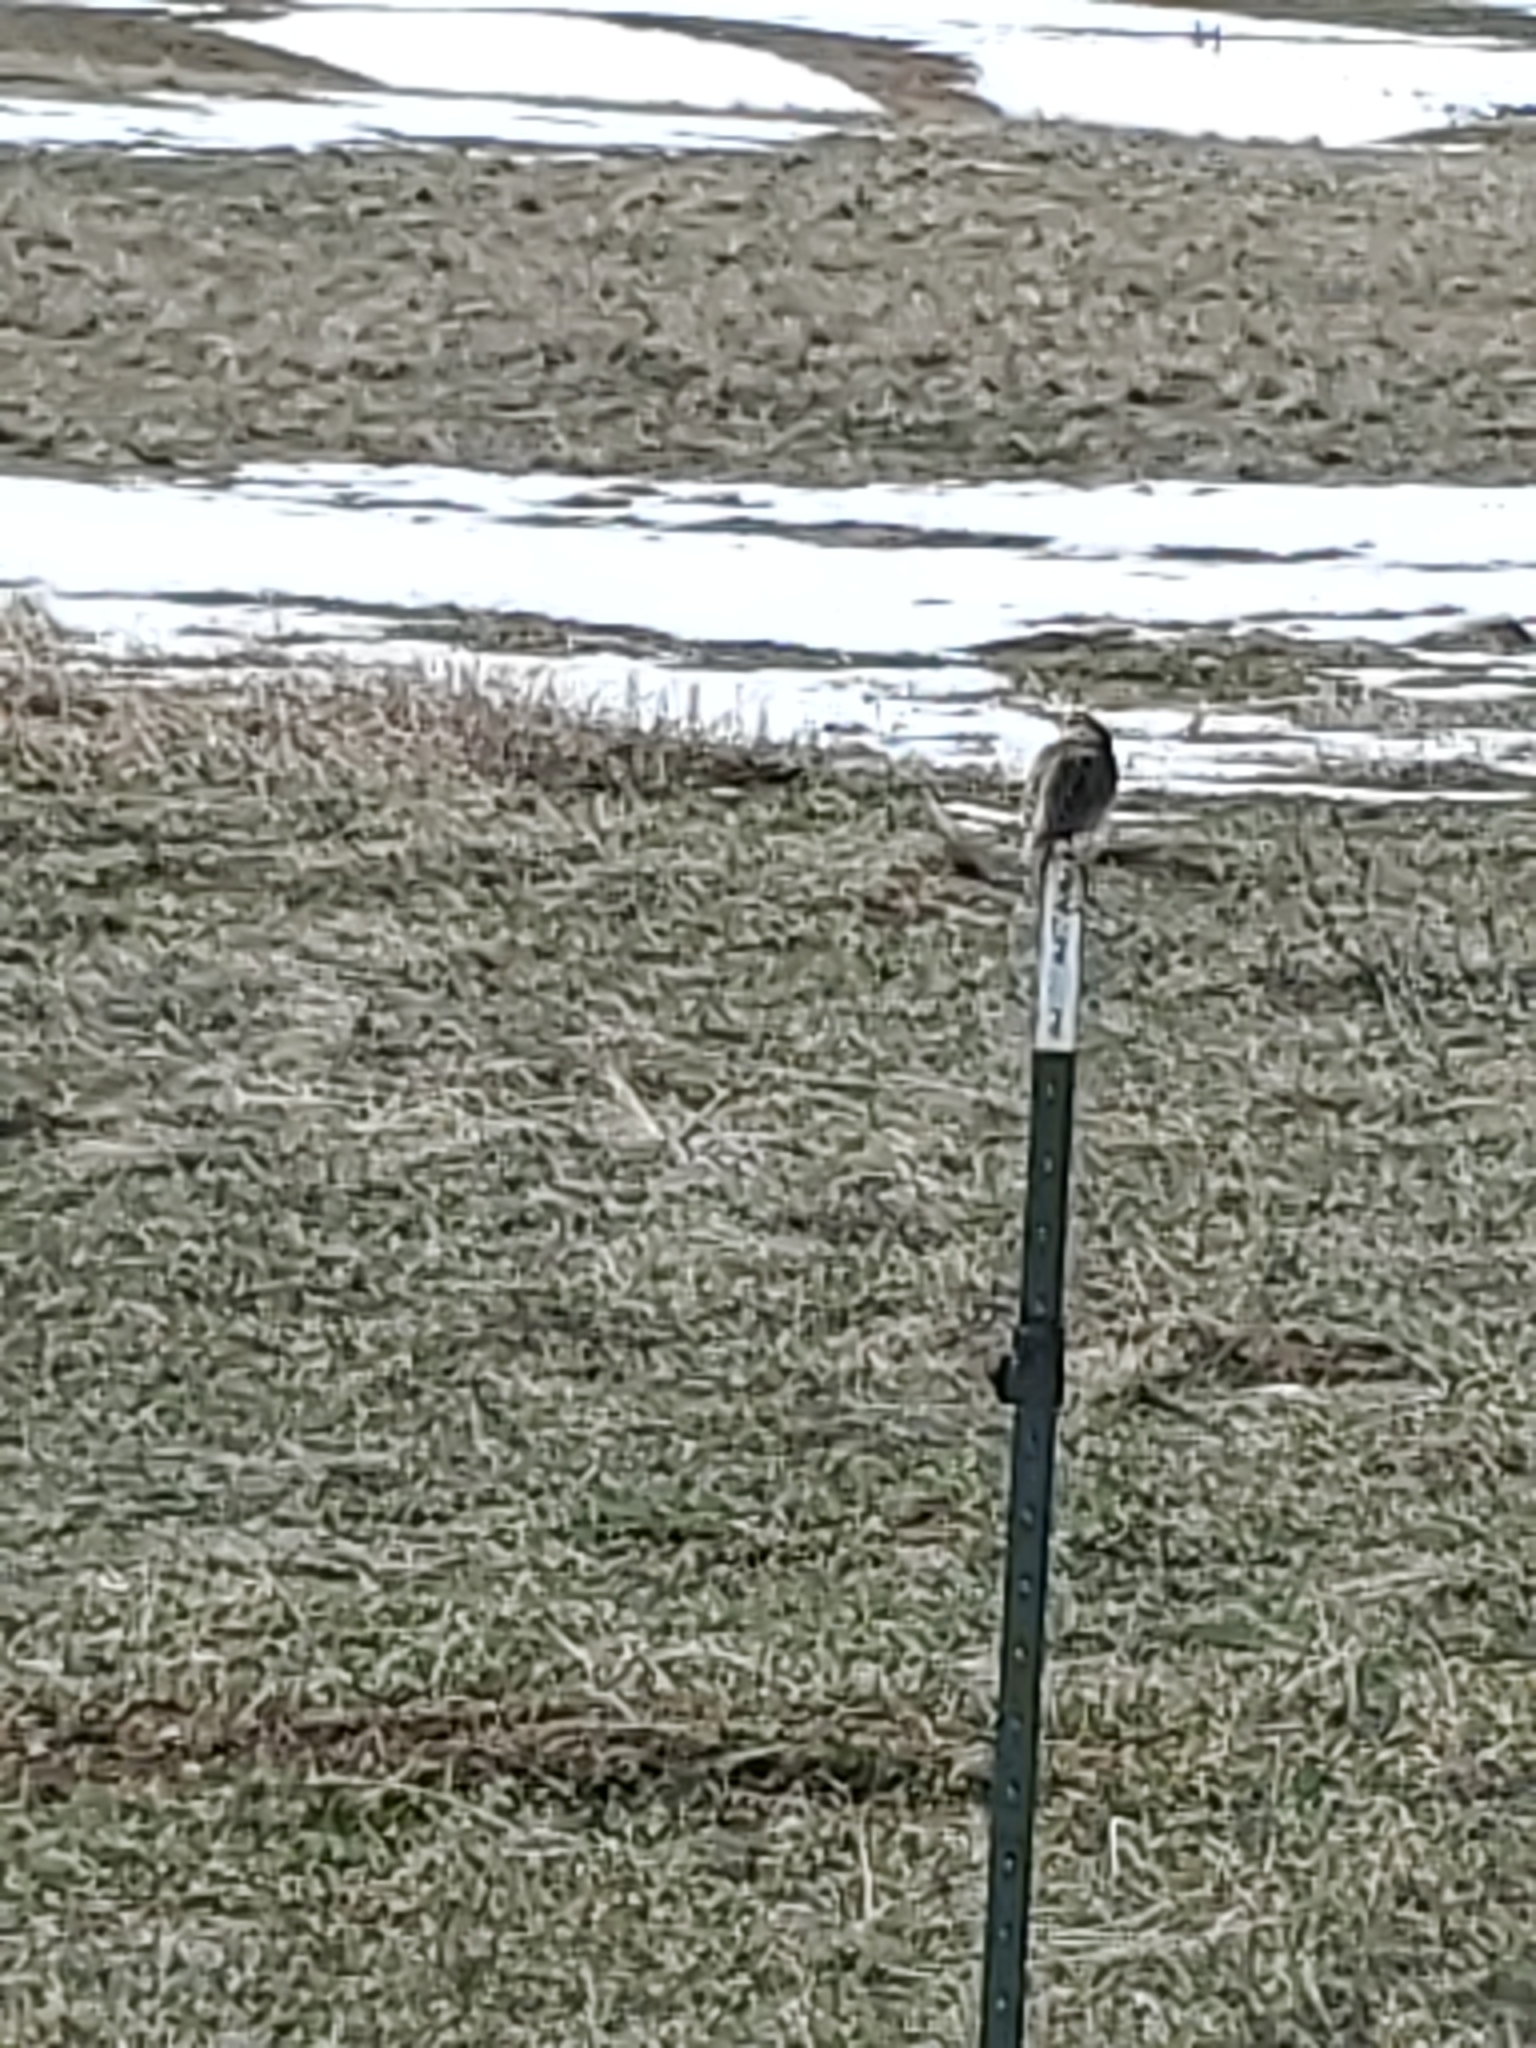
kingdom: Animalia
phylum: Chordata
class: Aves
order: Passeriformes
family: Icteridae
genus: Sturnella
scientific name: Sturnella neglecta
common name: Western meadowlark
